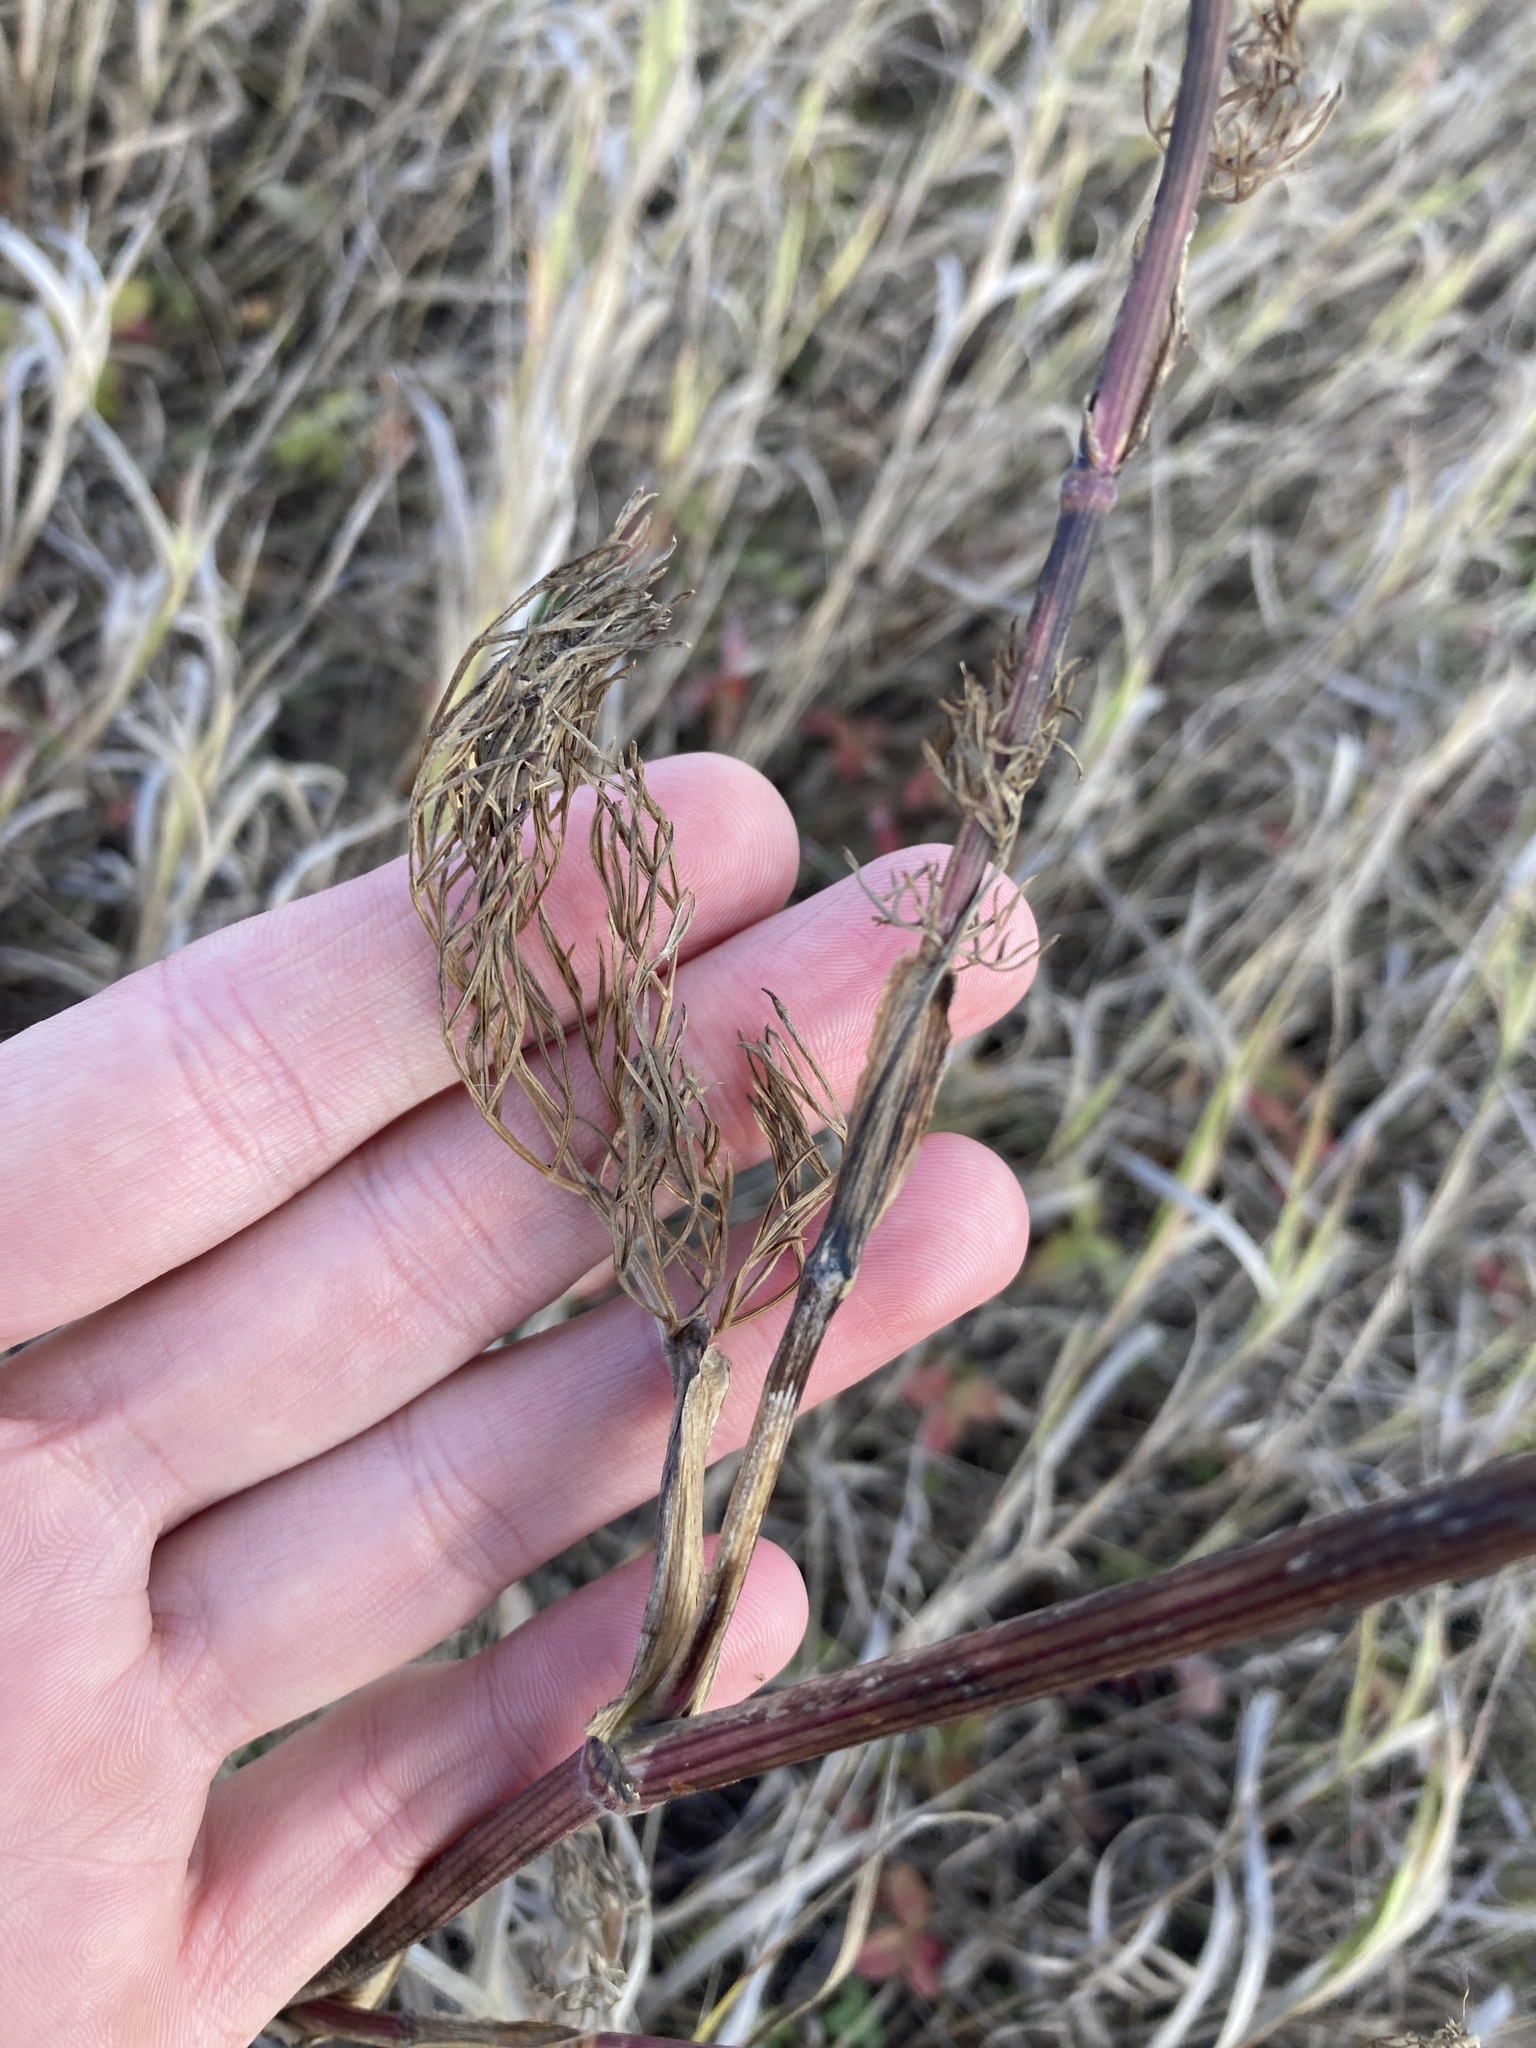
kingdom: Plantae
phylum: Tracheophyta
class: Magnoliopsida
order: Apiales
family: Apiaceae
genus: Seseli
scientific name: Seseli annuum
